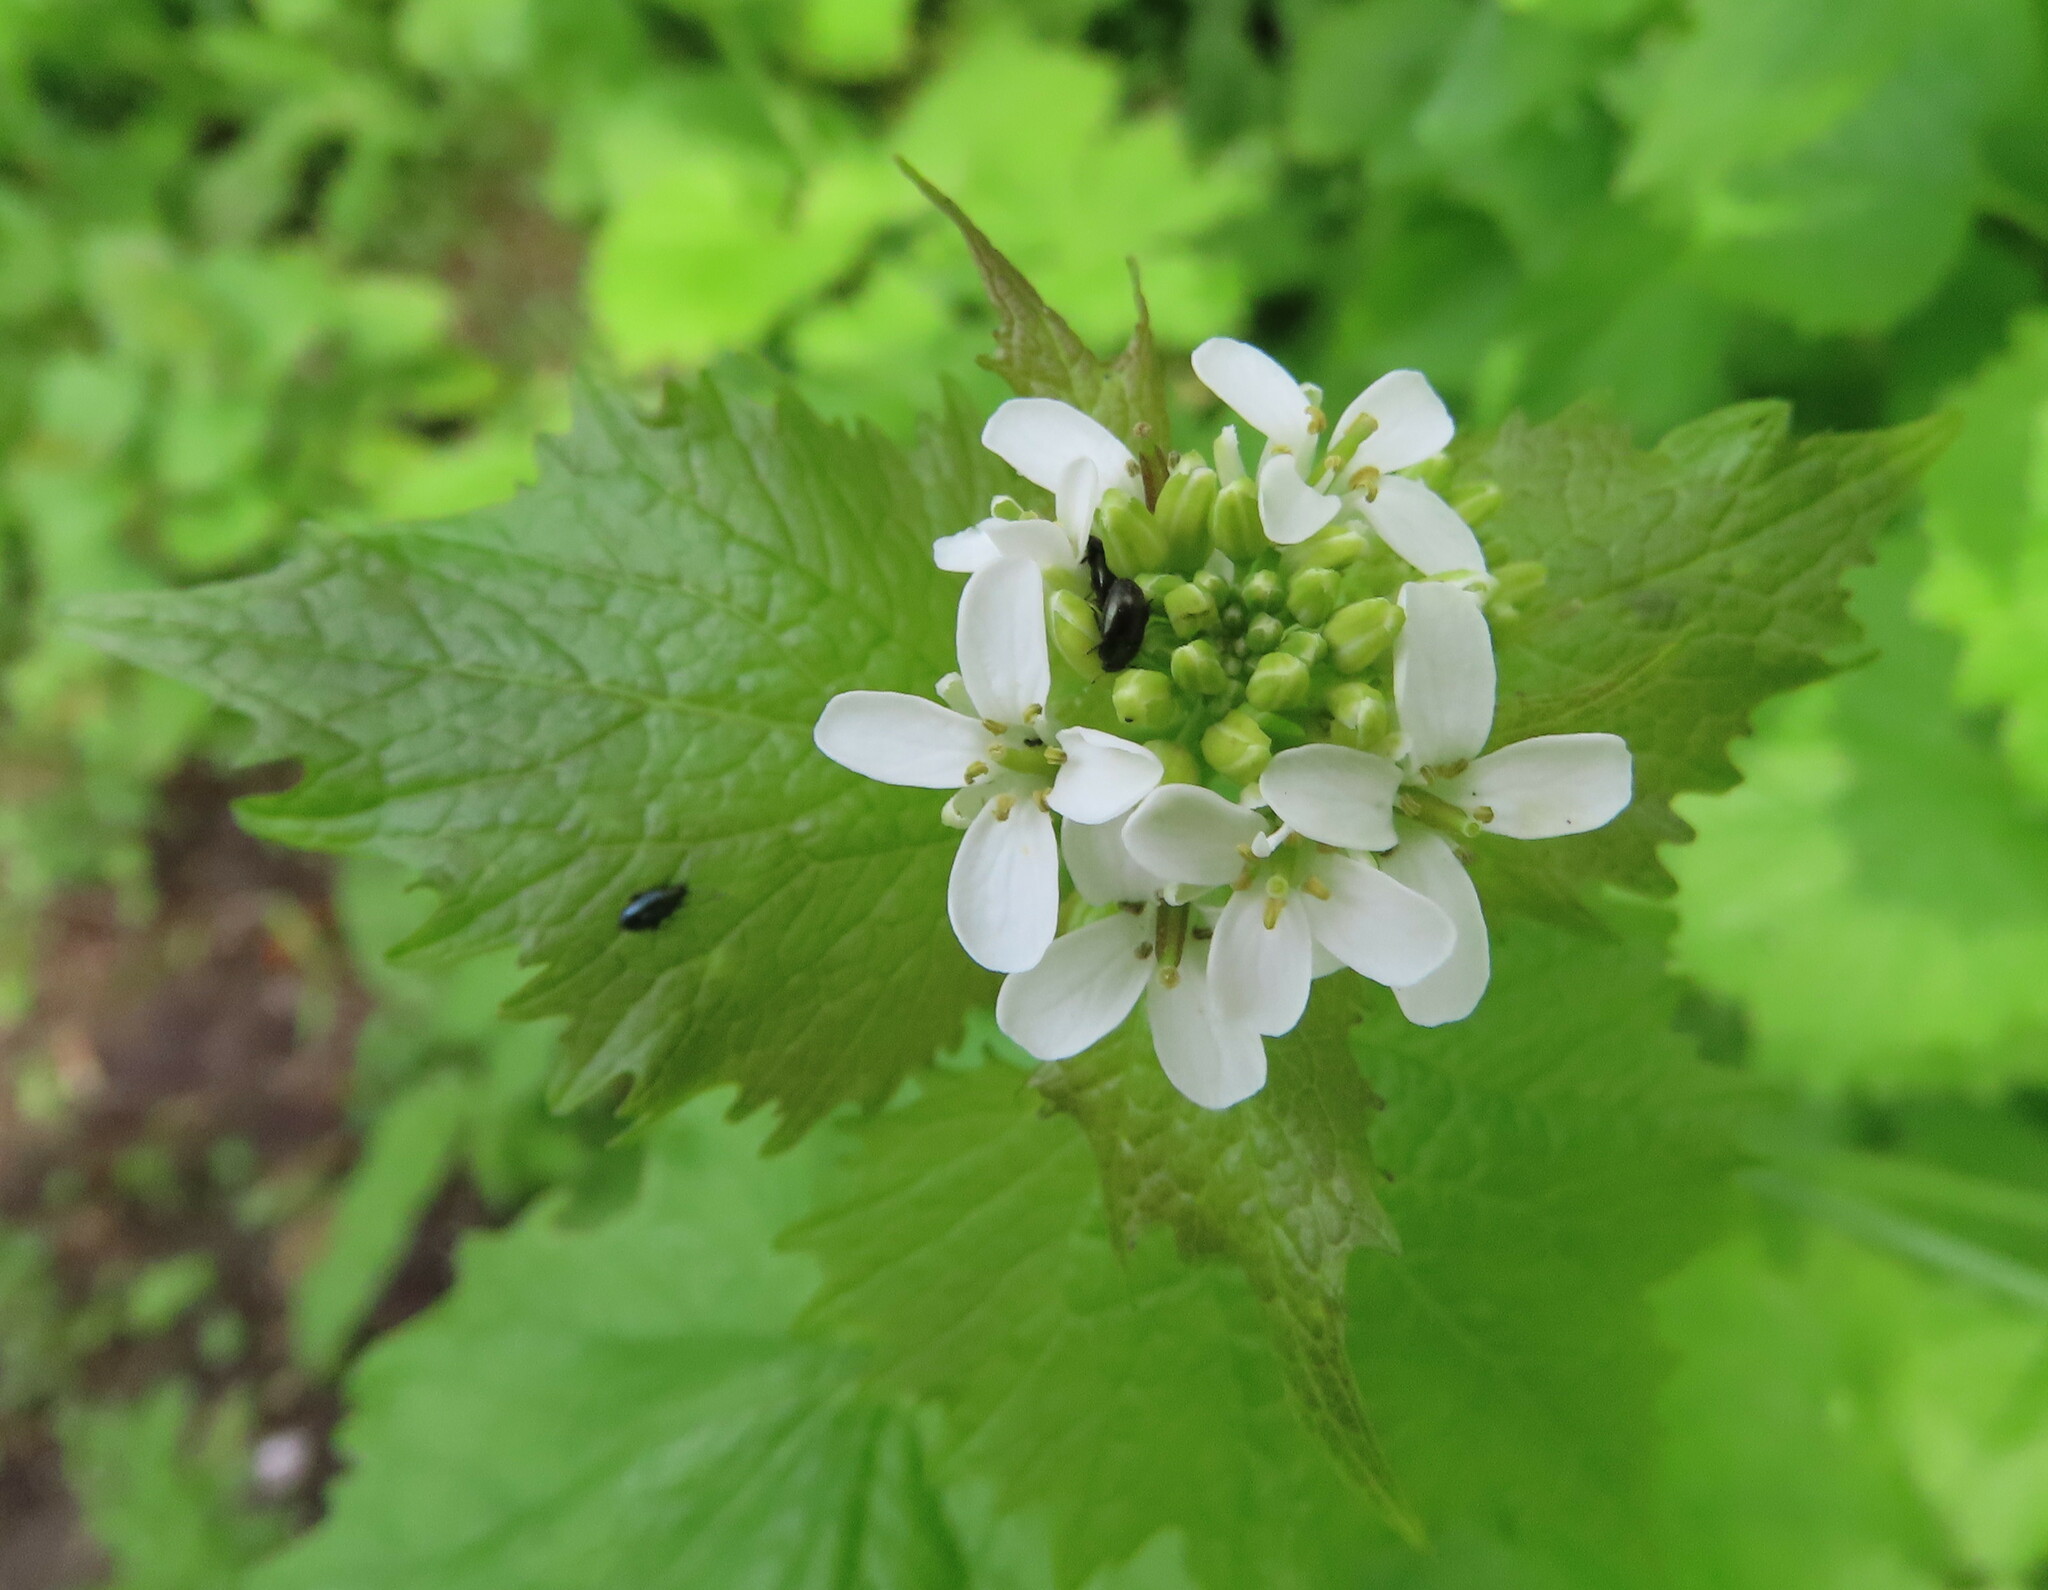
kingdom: Plantae
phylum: Tracheophyta
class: Magnoliopsida
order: Brassicales
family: Brassicaceae
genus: Alliaria
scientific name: Alliaria petiolata
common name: Garlic mustard
